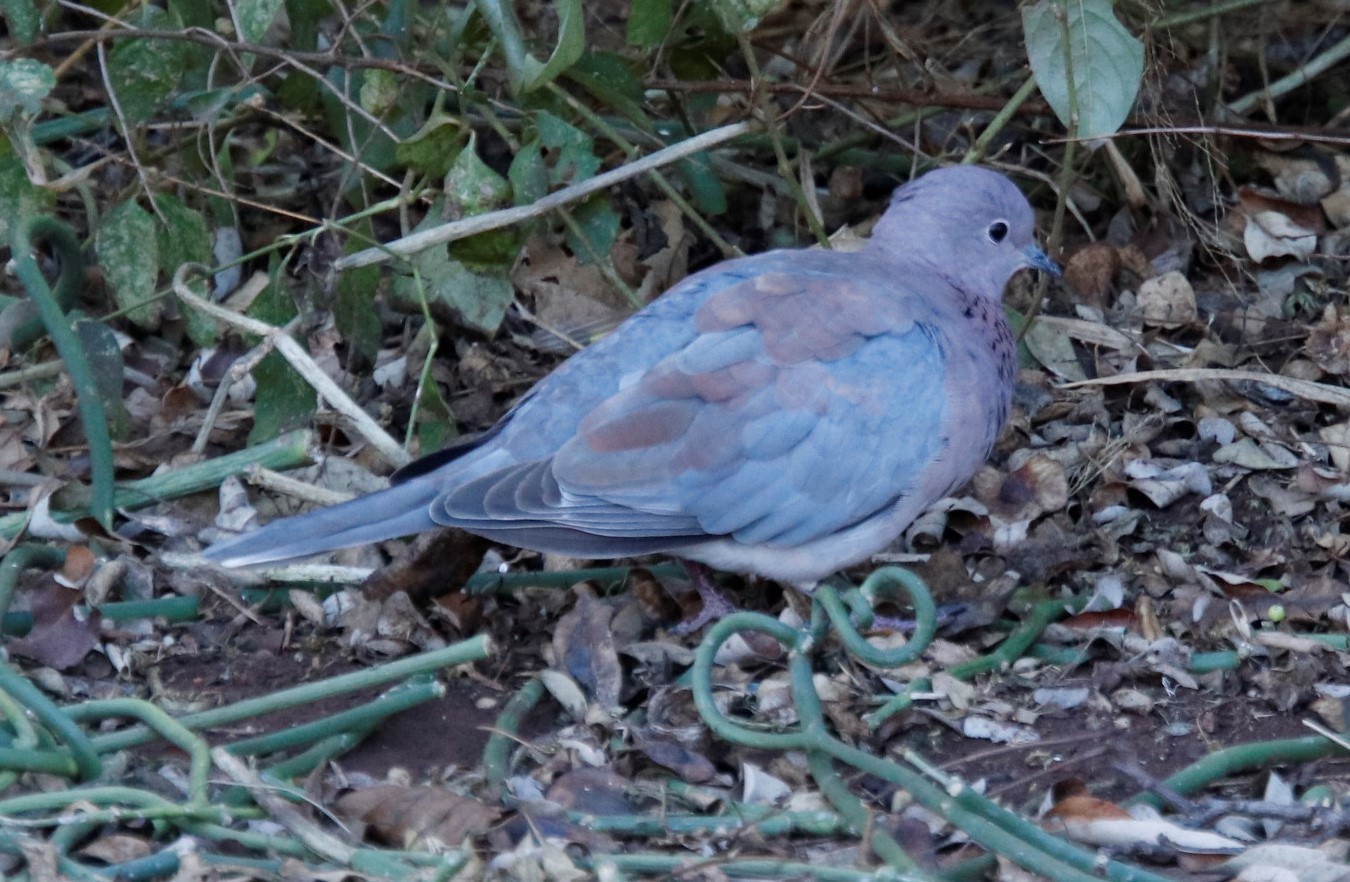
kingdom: Animalia
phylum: Chordata
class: Aves
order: Columbiformes
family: Columbidae
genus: Spilopelia
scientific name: Spilopelia senegalensis
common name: Laughing dove
